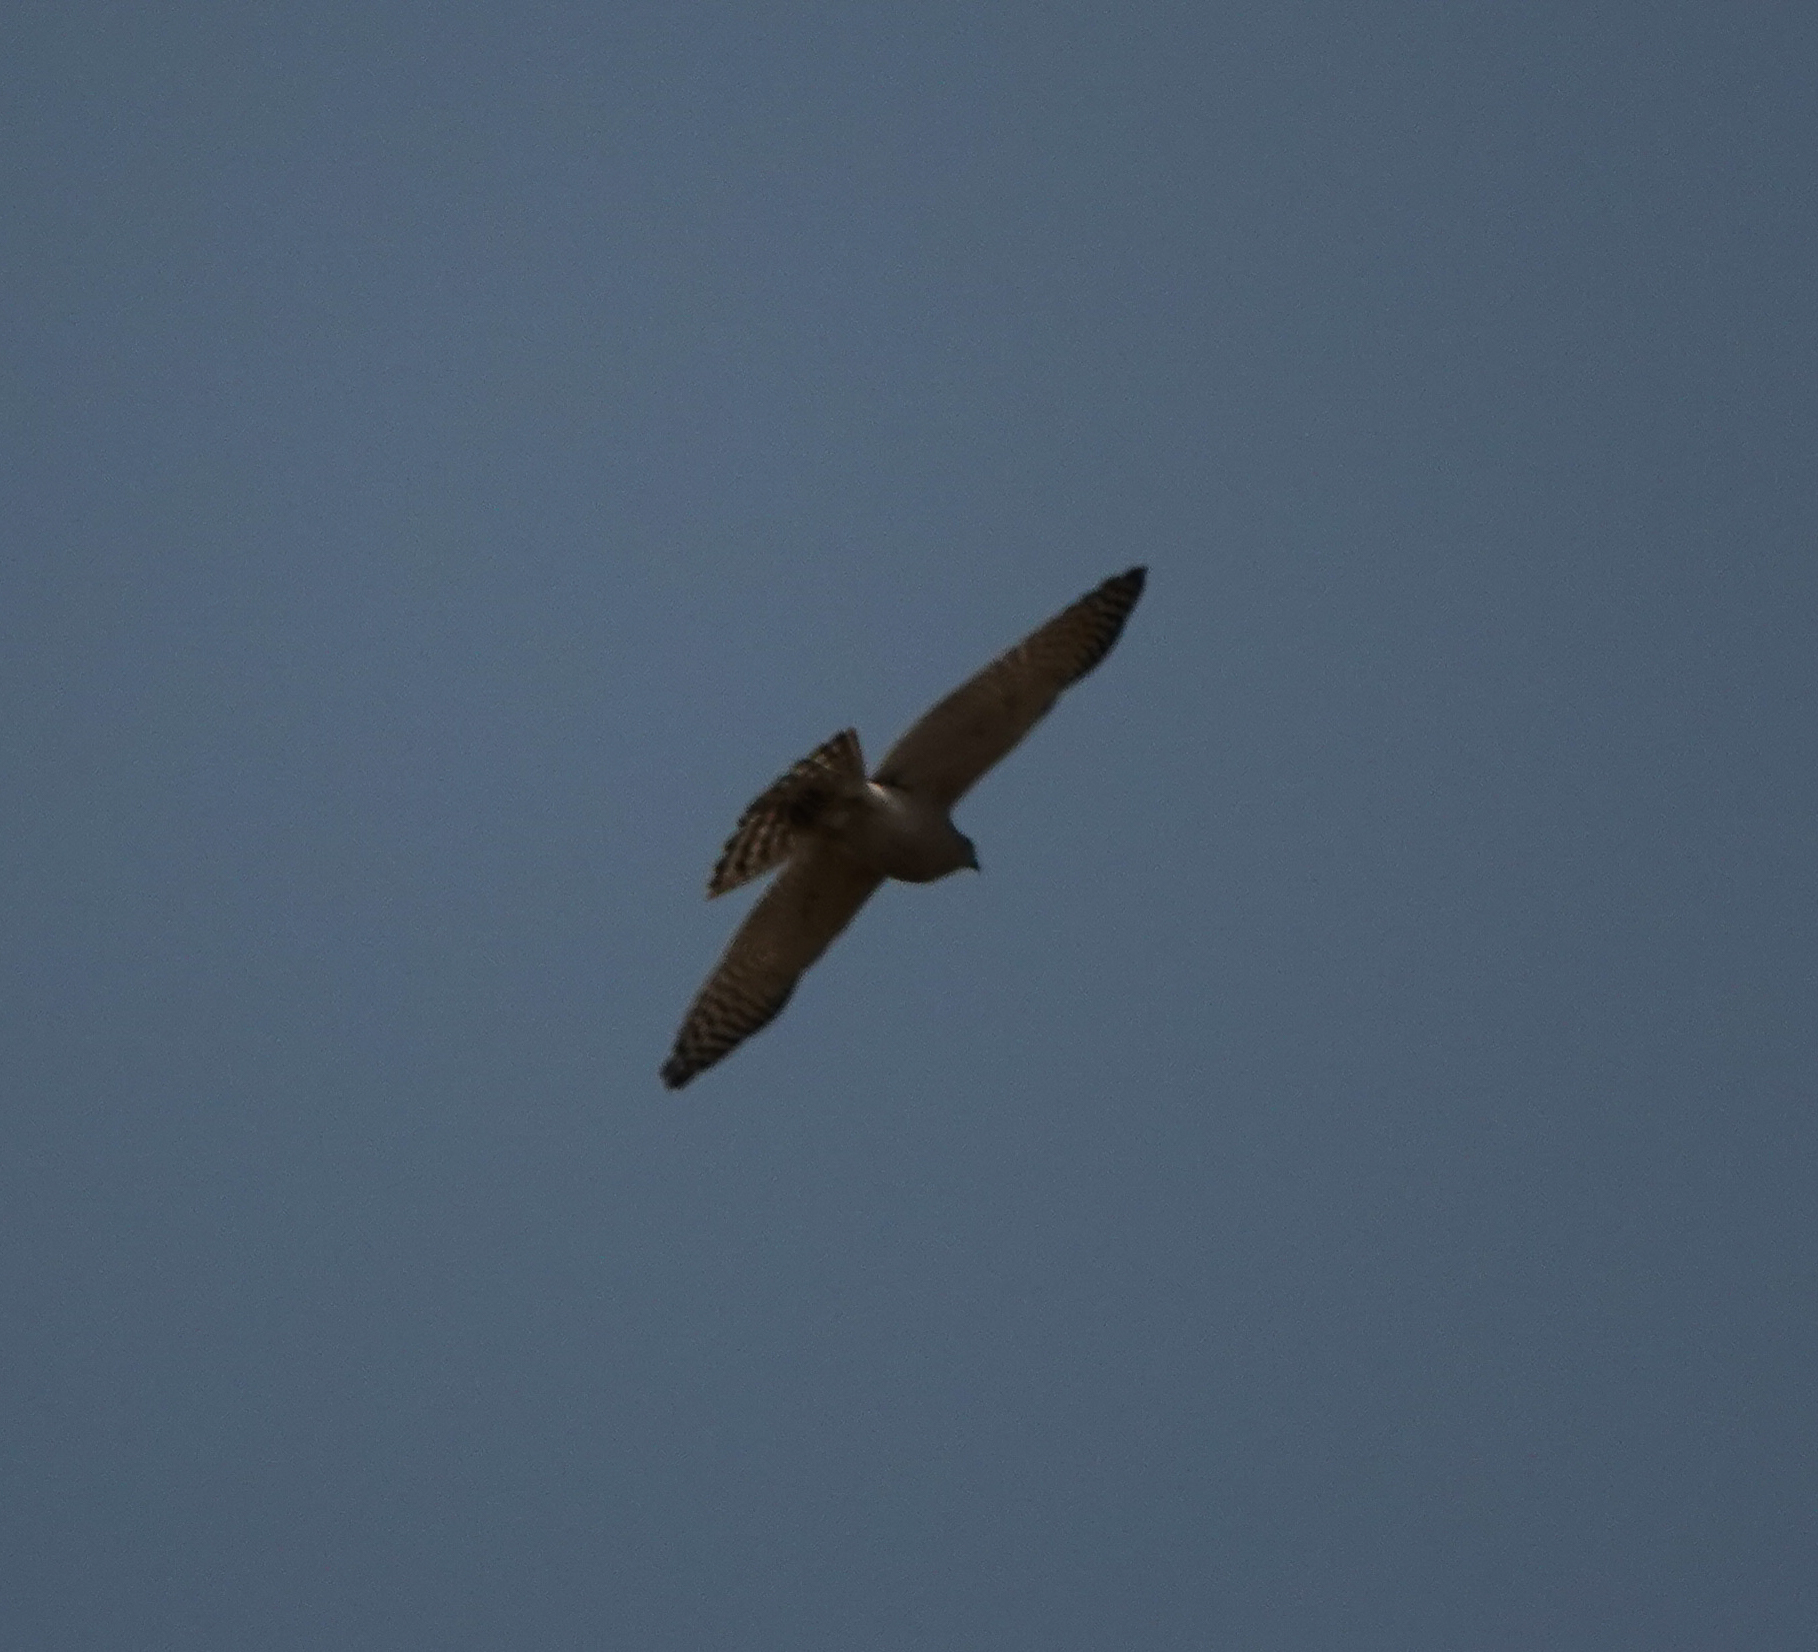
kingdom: Animalia
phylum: Chordata
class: Aves
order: Accipitriformes
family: Accipitridae
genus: Accipiter
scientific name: Accipiter badius
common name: Shikra
